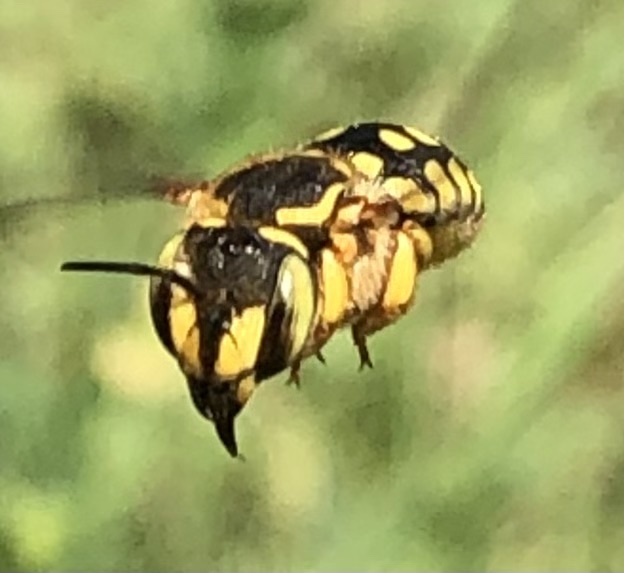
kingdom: Animalia
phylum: Arthropoda
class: Insecta
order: Hymenoptera
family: Megachilidae
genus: Anthidium
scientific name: Anthidium loti
